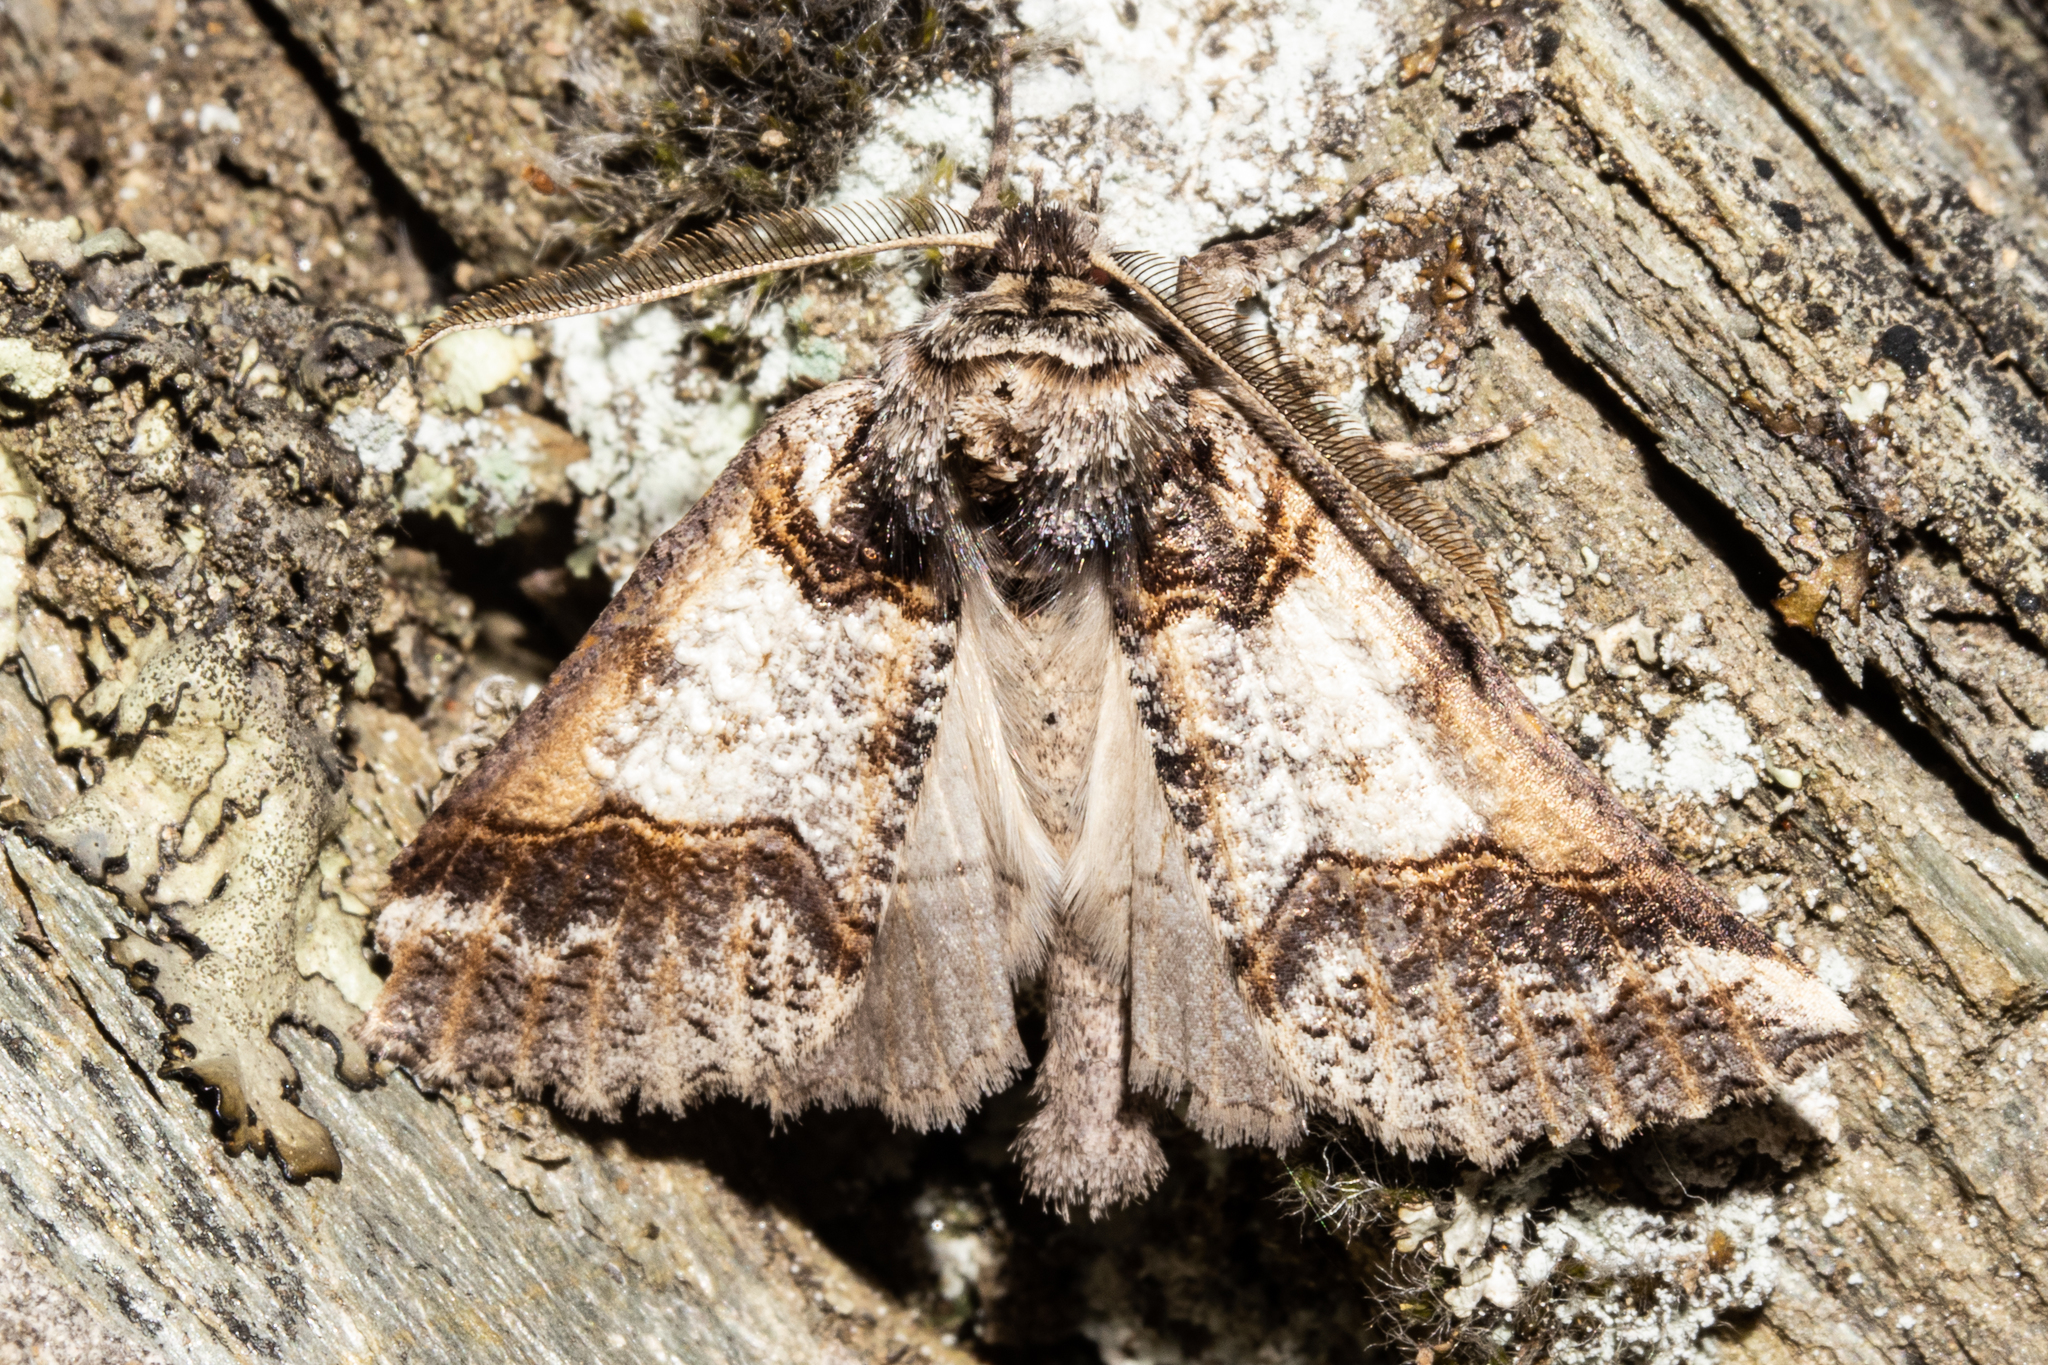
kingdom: Animalia
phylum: Arthropoda
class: Insecta
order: Lepidoptera
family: Geometridae
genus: Declana
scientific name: Declana
